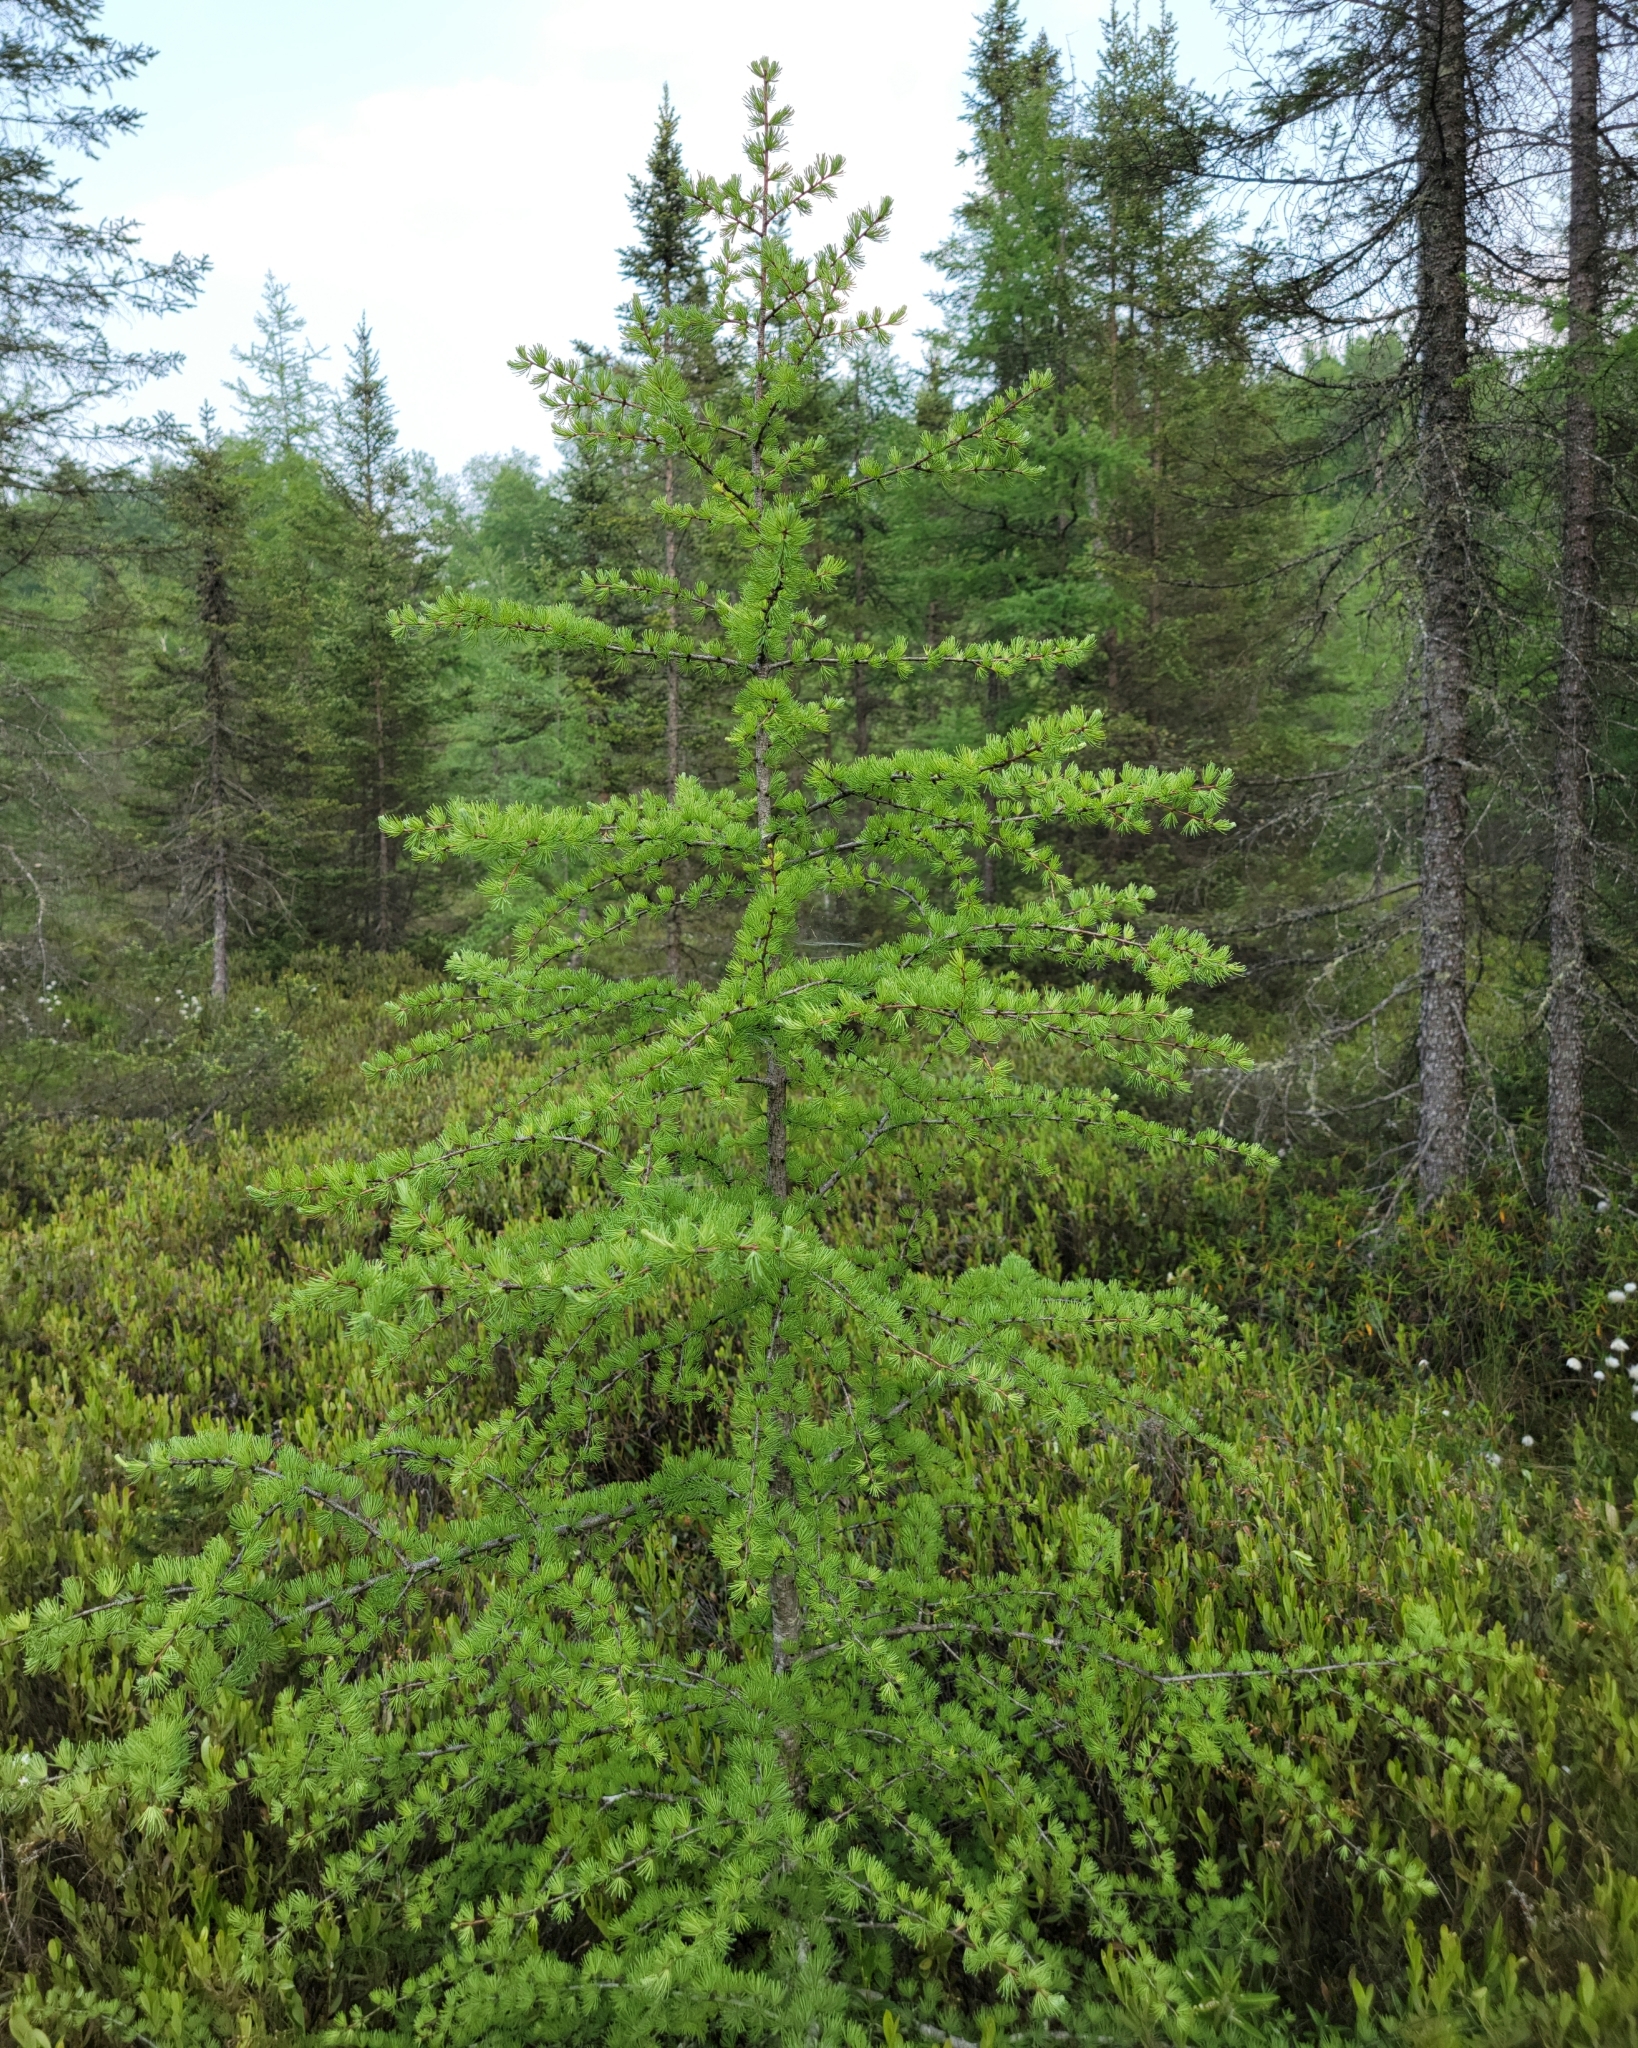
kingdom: Plantae
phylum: Tracheophyta
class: Pinopsida
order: Pinales
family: Pinaceae
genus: Larix
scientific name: Larix laricina
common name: American larch
